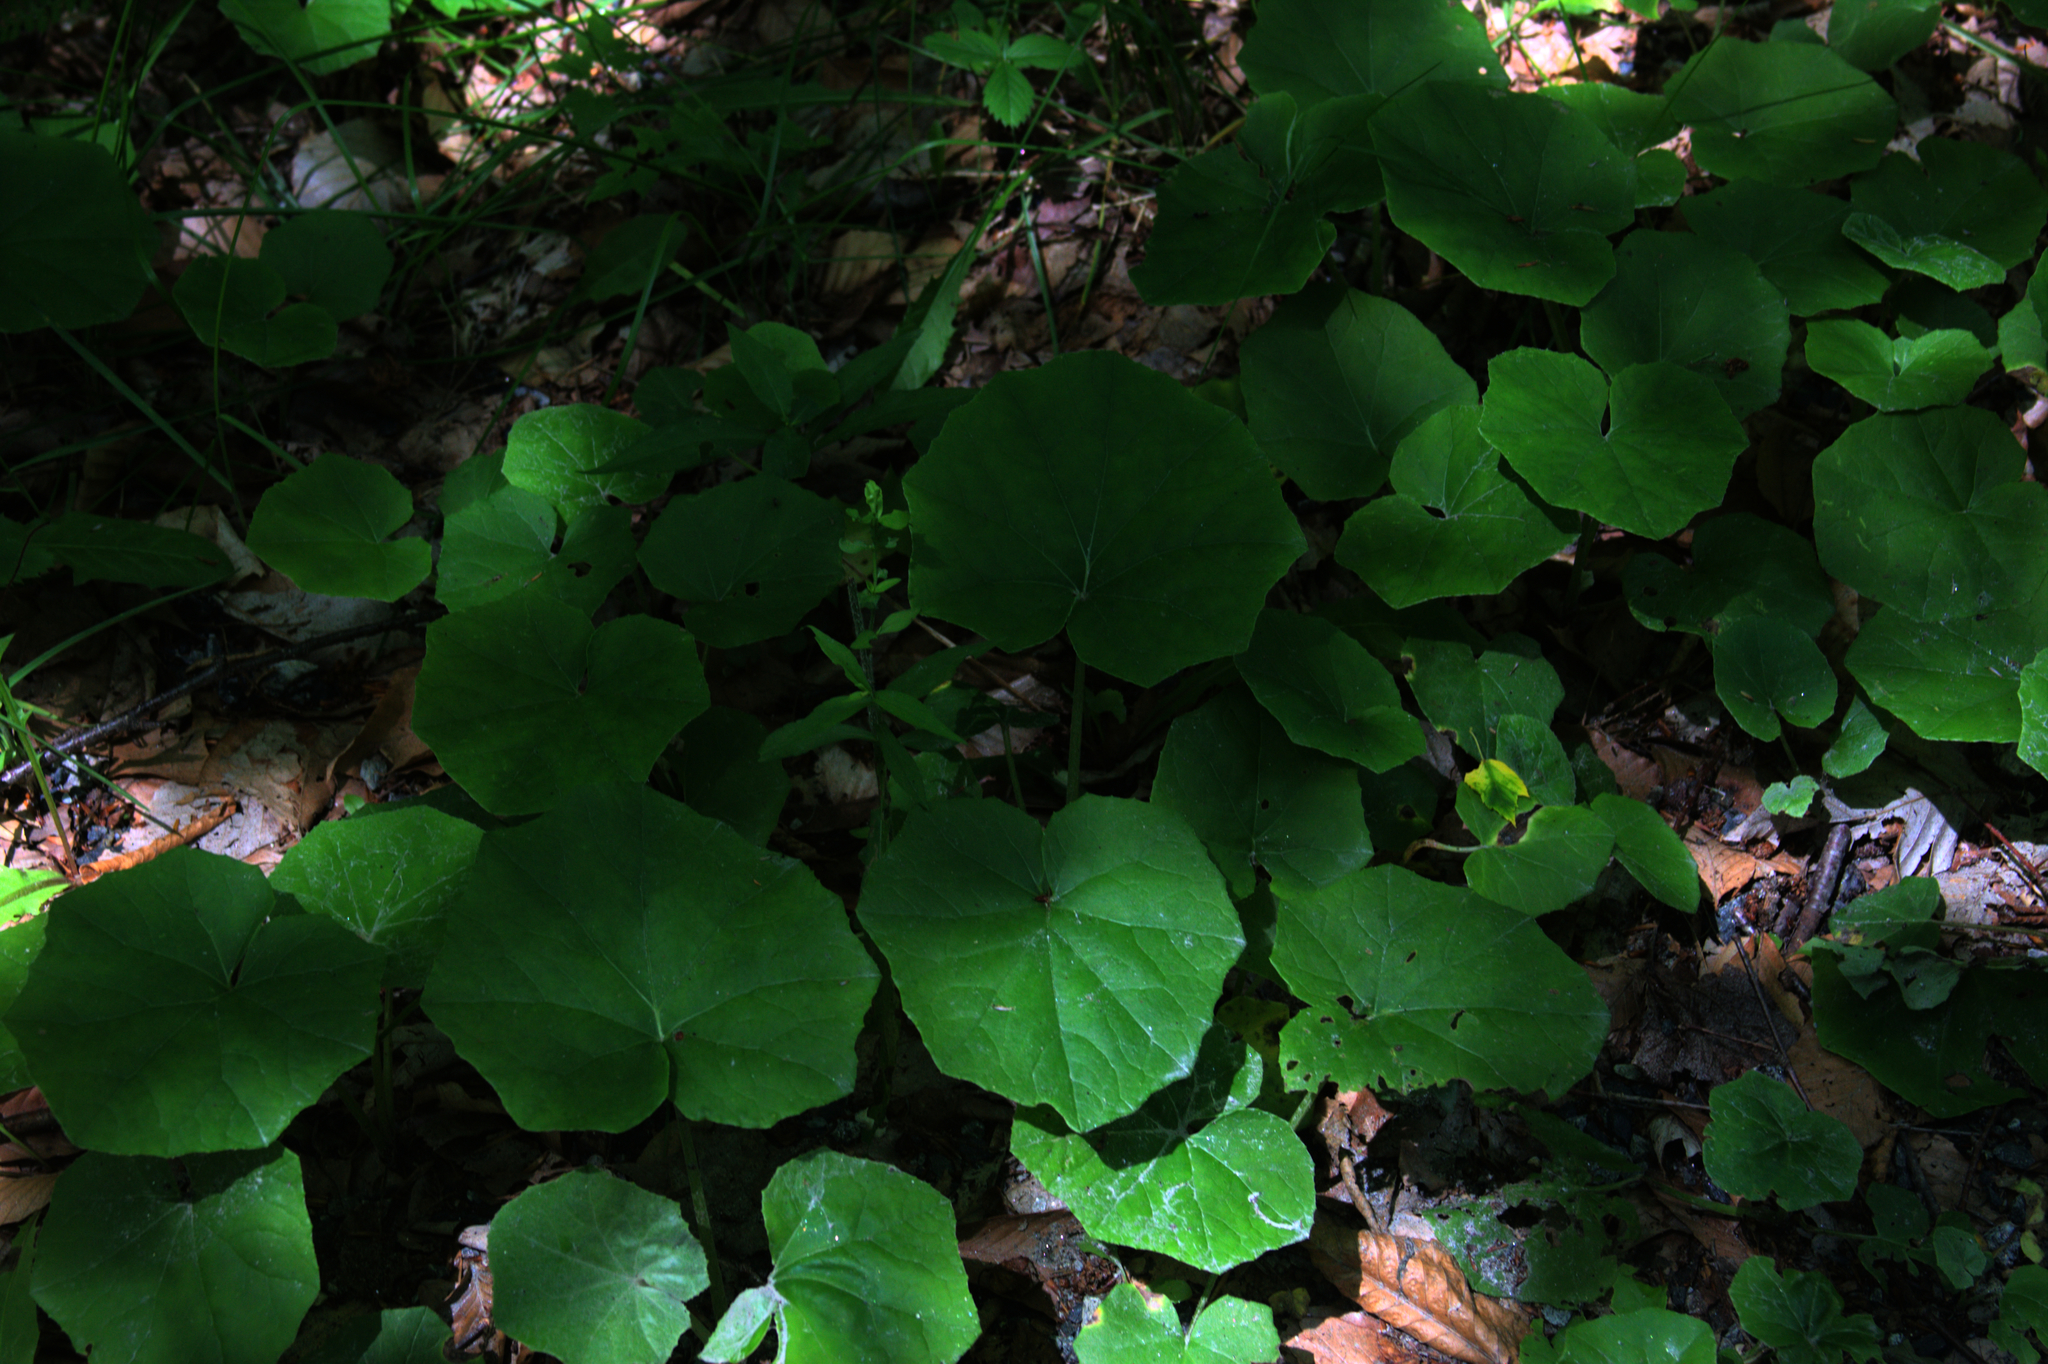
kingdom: Plantae
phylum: Tracheophyta
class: Magnoliopsida
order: Asterales
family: Asteraceae
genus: Tussilago
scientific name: Tussilago farfara
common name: Coltsfoot
